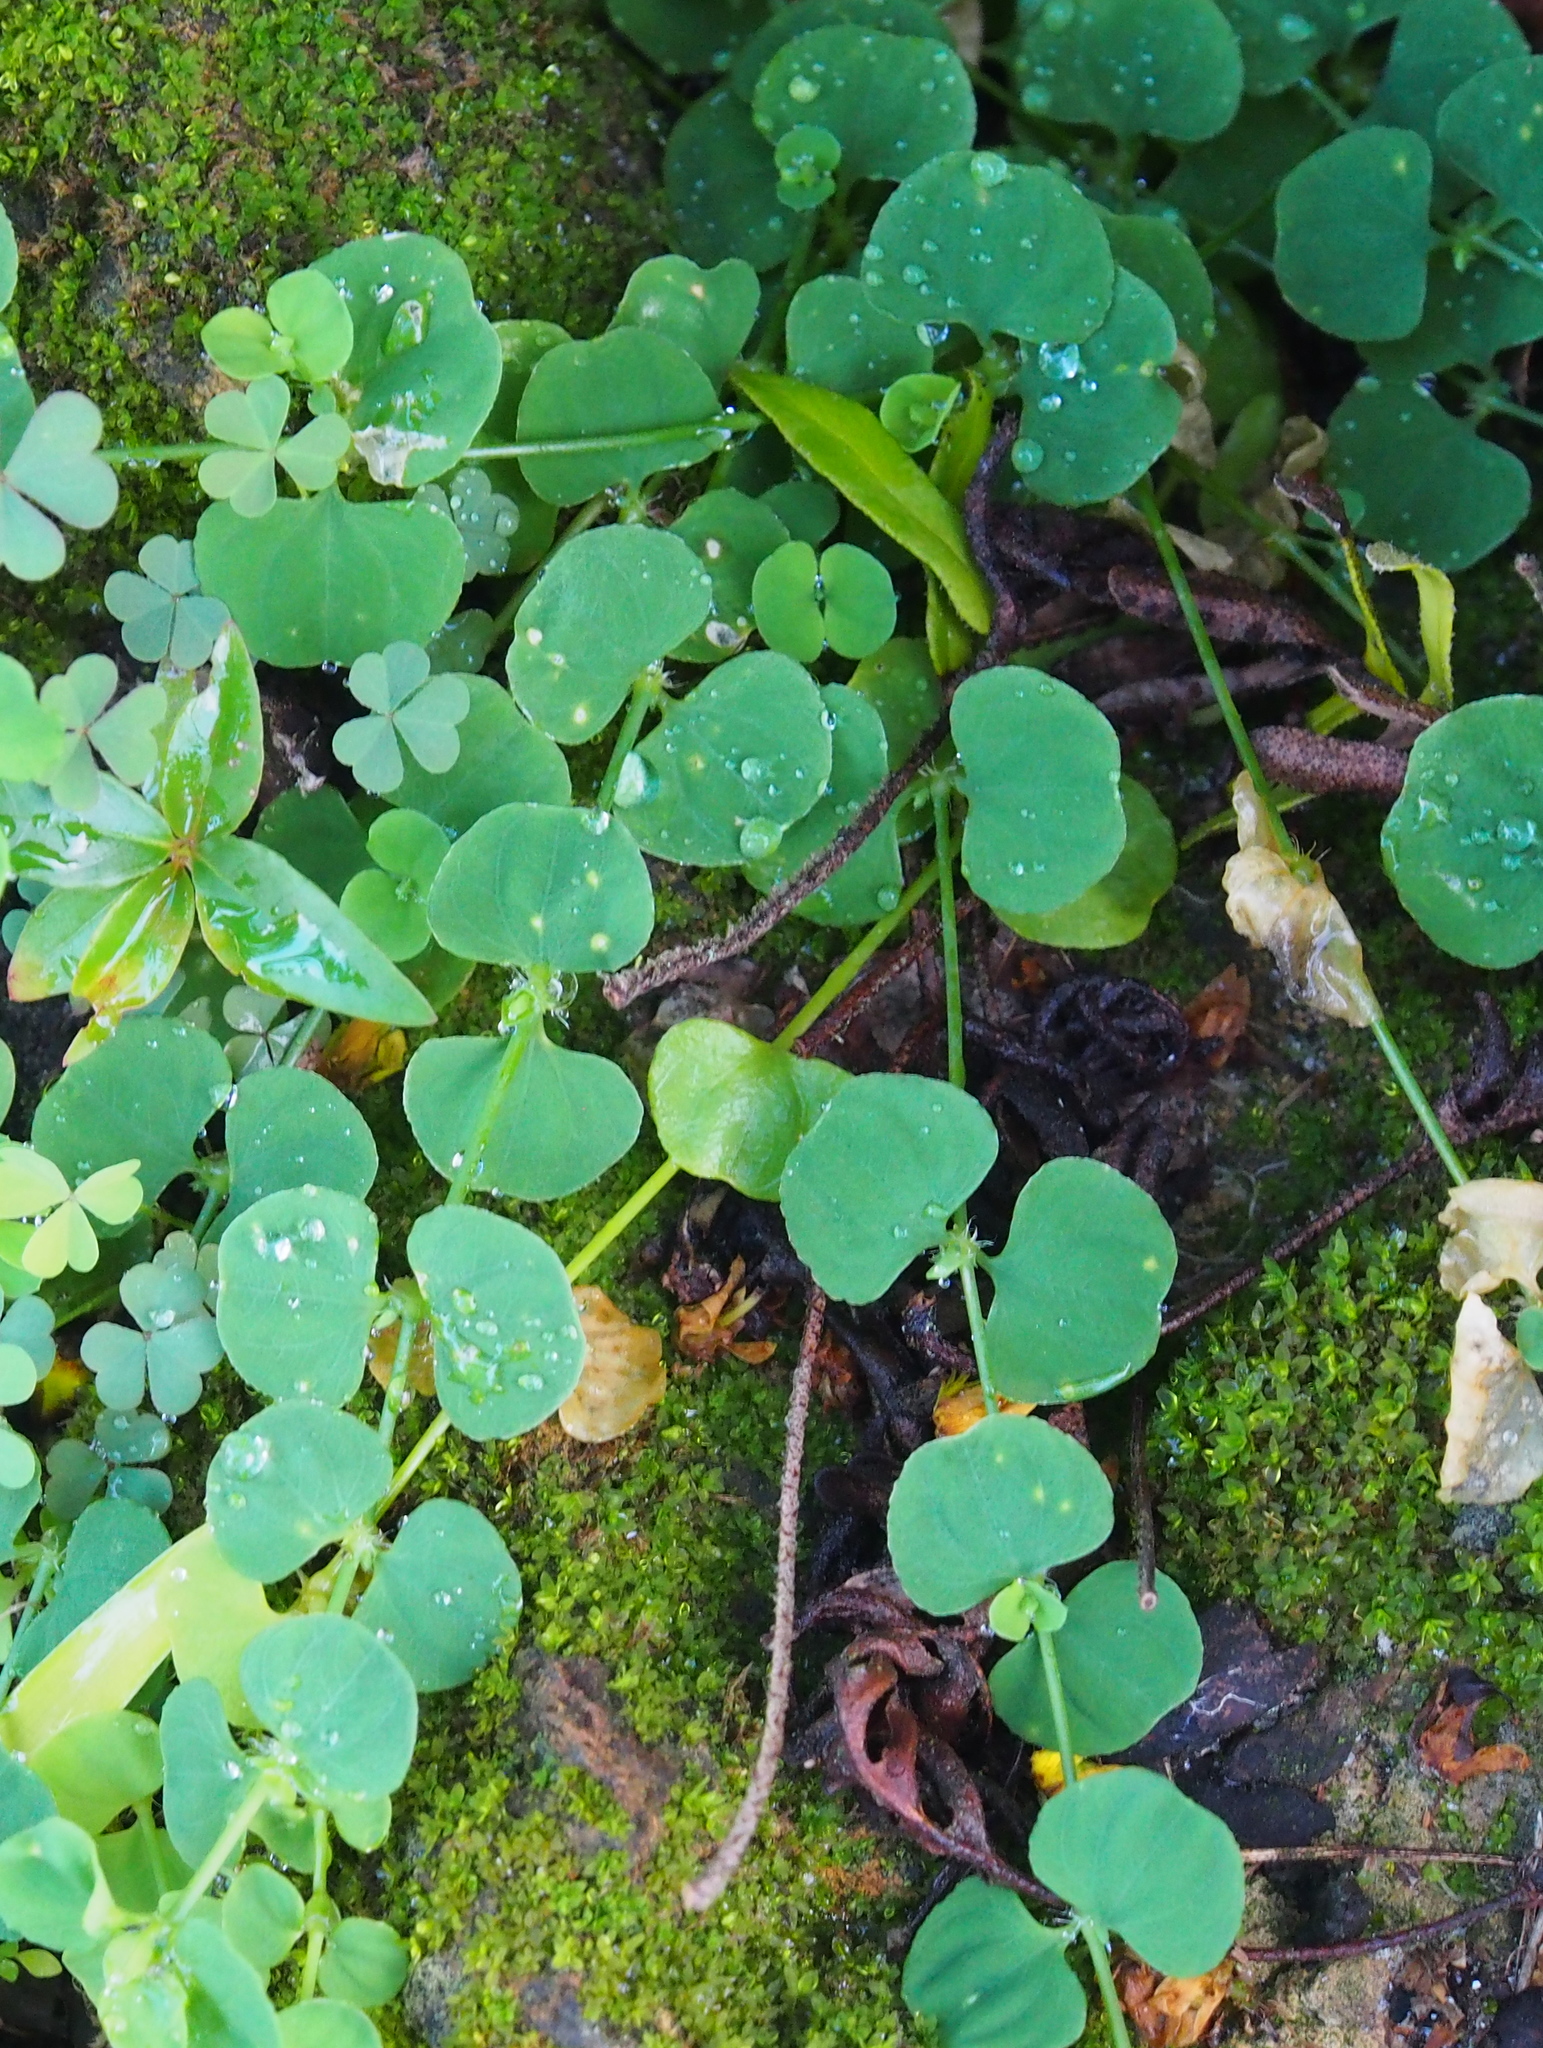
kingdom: Plantae
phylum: Tracheophyta
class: Magnoliopsida
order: Caryophyllales
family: Caryophyllaceae
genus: Drymaria
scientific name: Drymaria cordata
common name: Whitesnow
